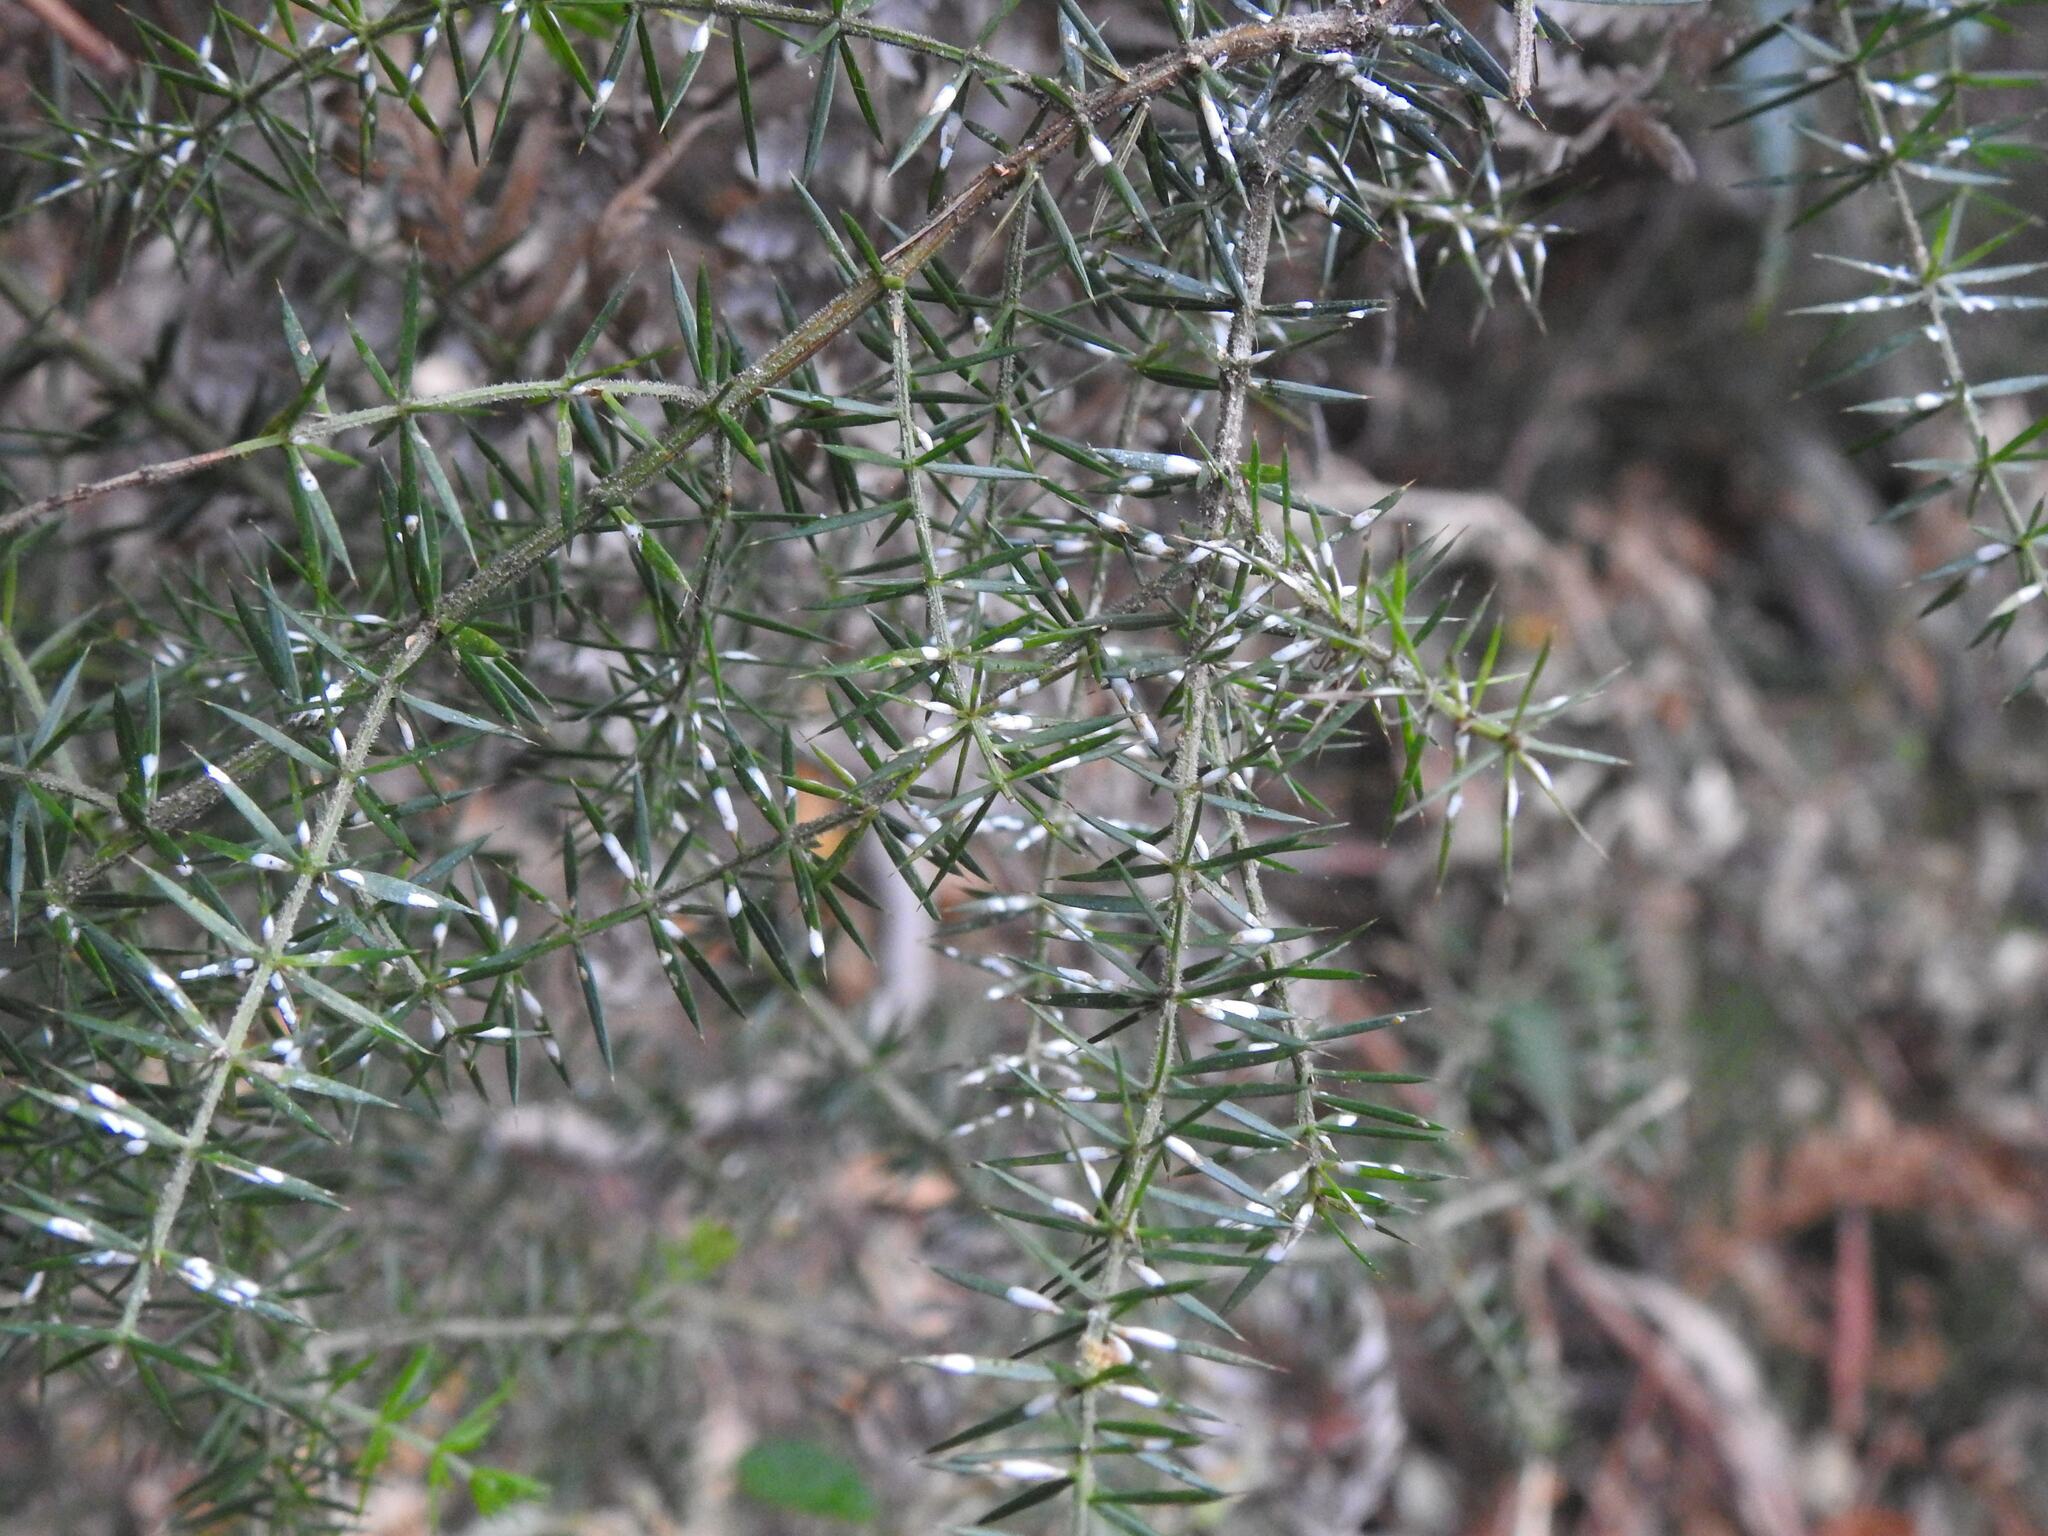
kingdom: Plantae
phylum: Tracheophyta
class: Magnoliopsida
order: Fabales
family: Fabaceae
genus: Acacia
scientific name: Acacia verticillata
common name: Prickly moses
